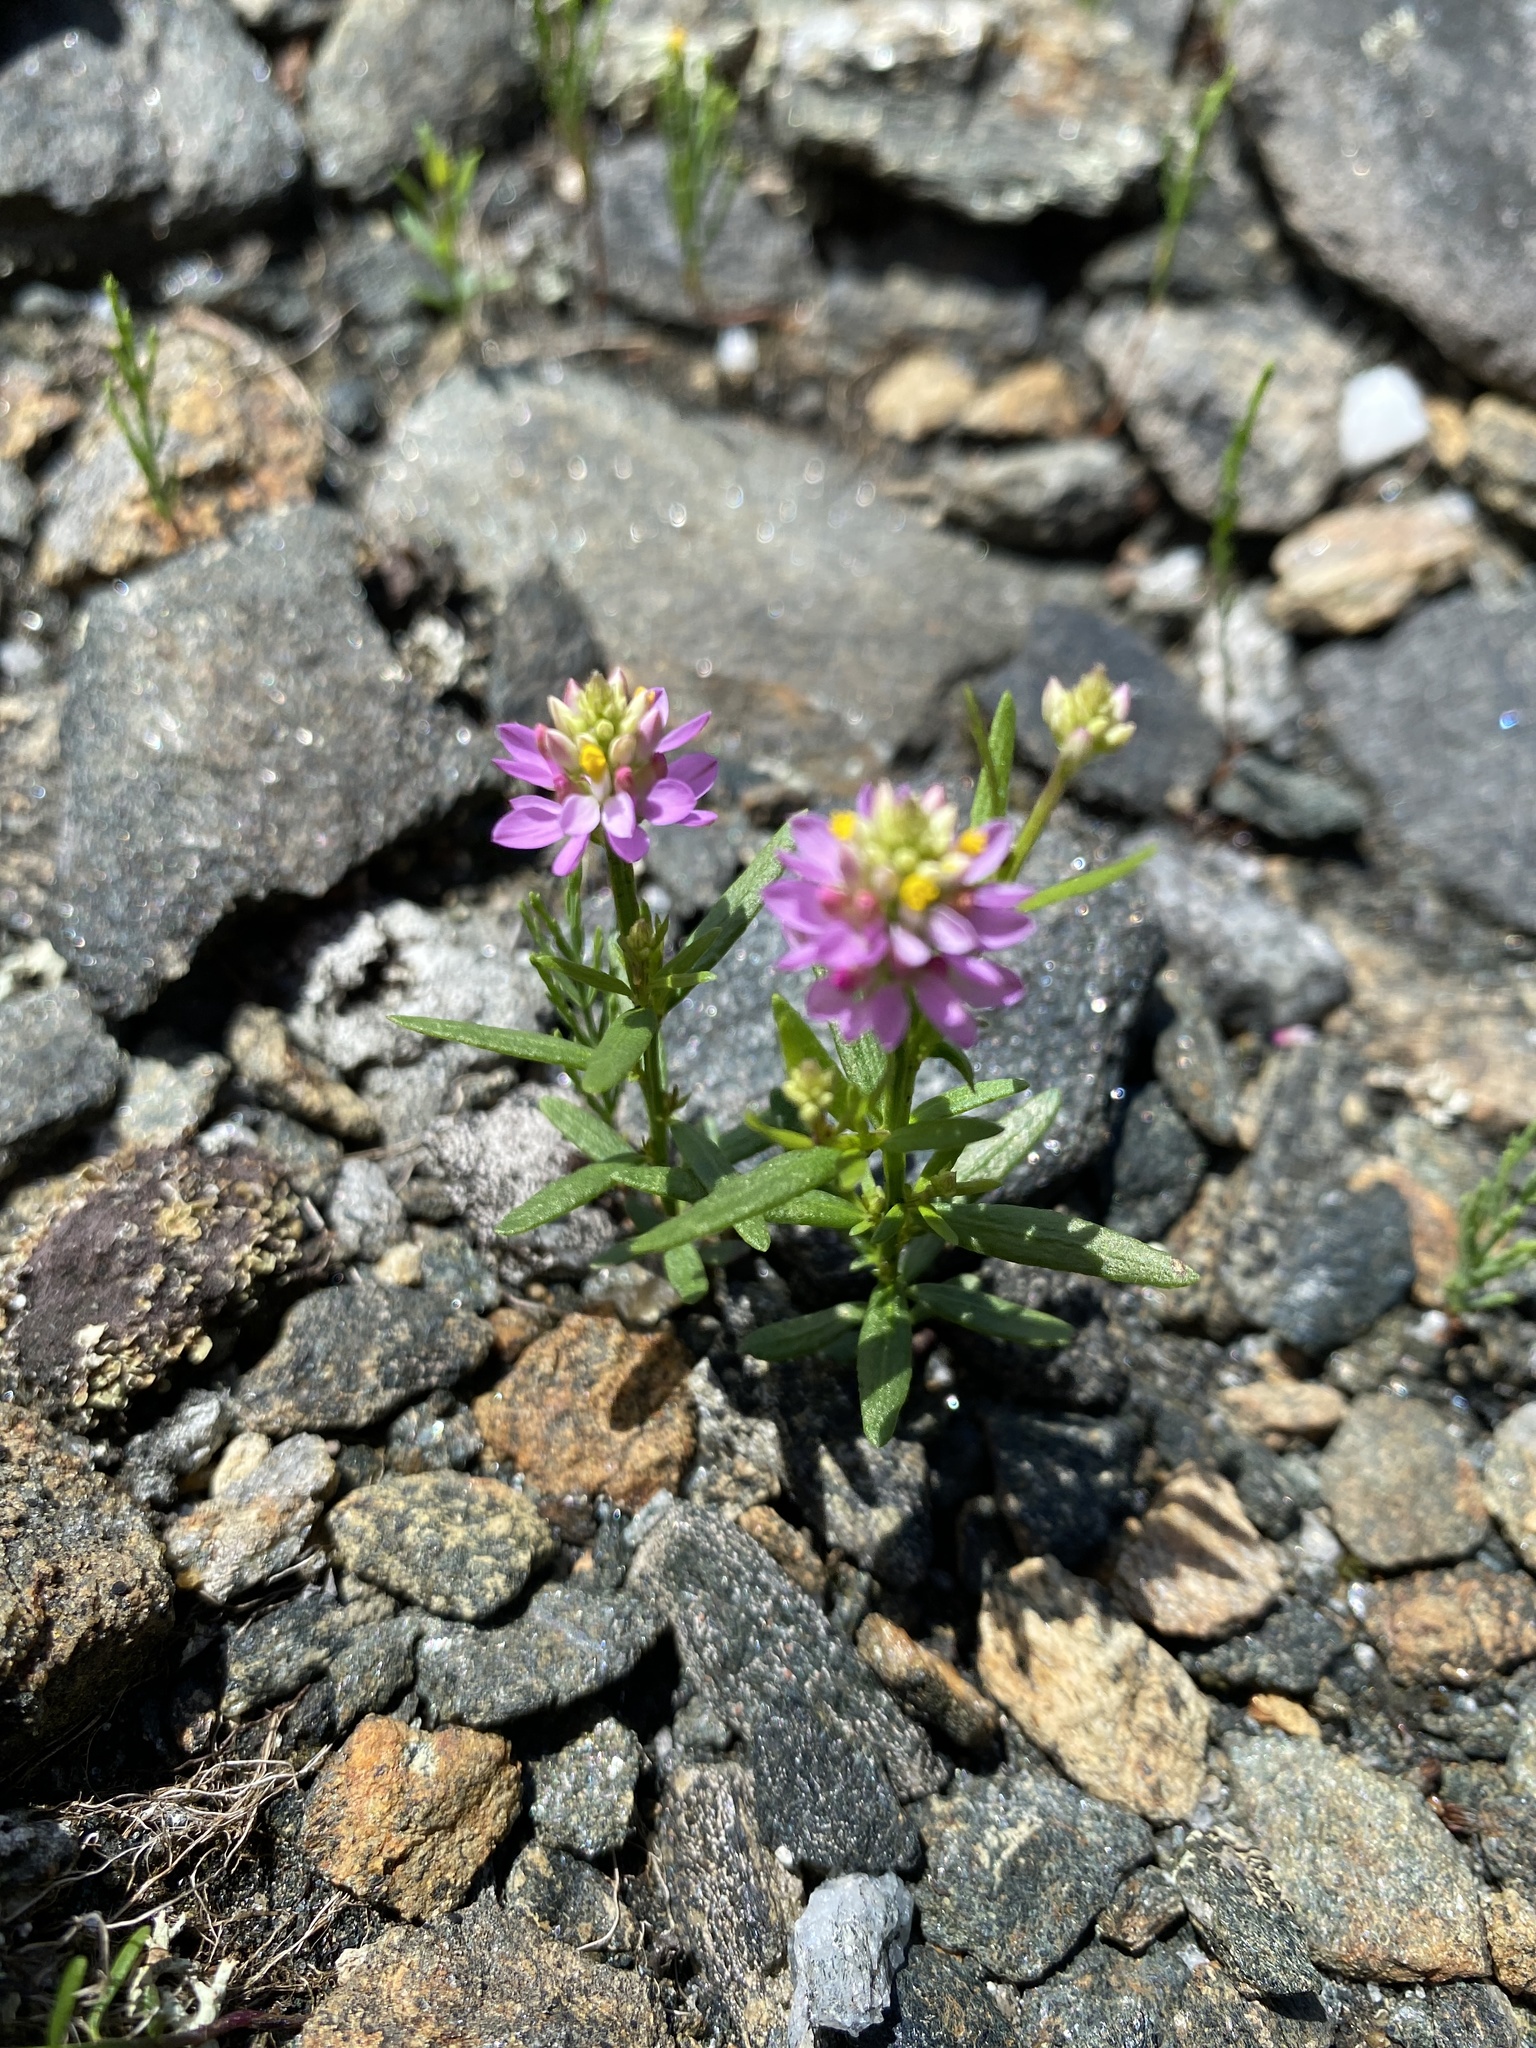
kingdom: Plantae
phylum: Tracheophyta
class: Magnoliopsida
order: Fabales
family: Polygalaceae
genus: Polygala
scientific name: Polygala curtissii
